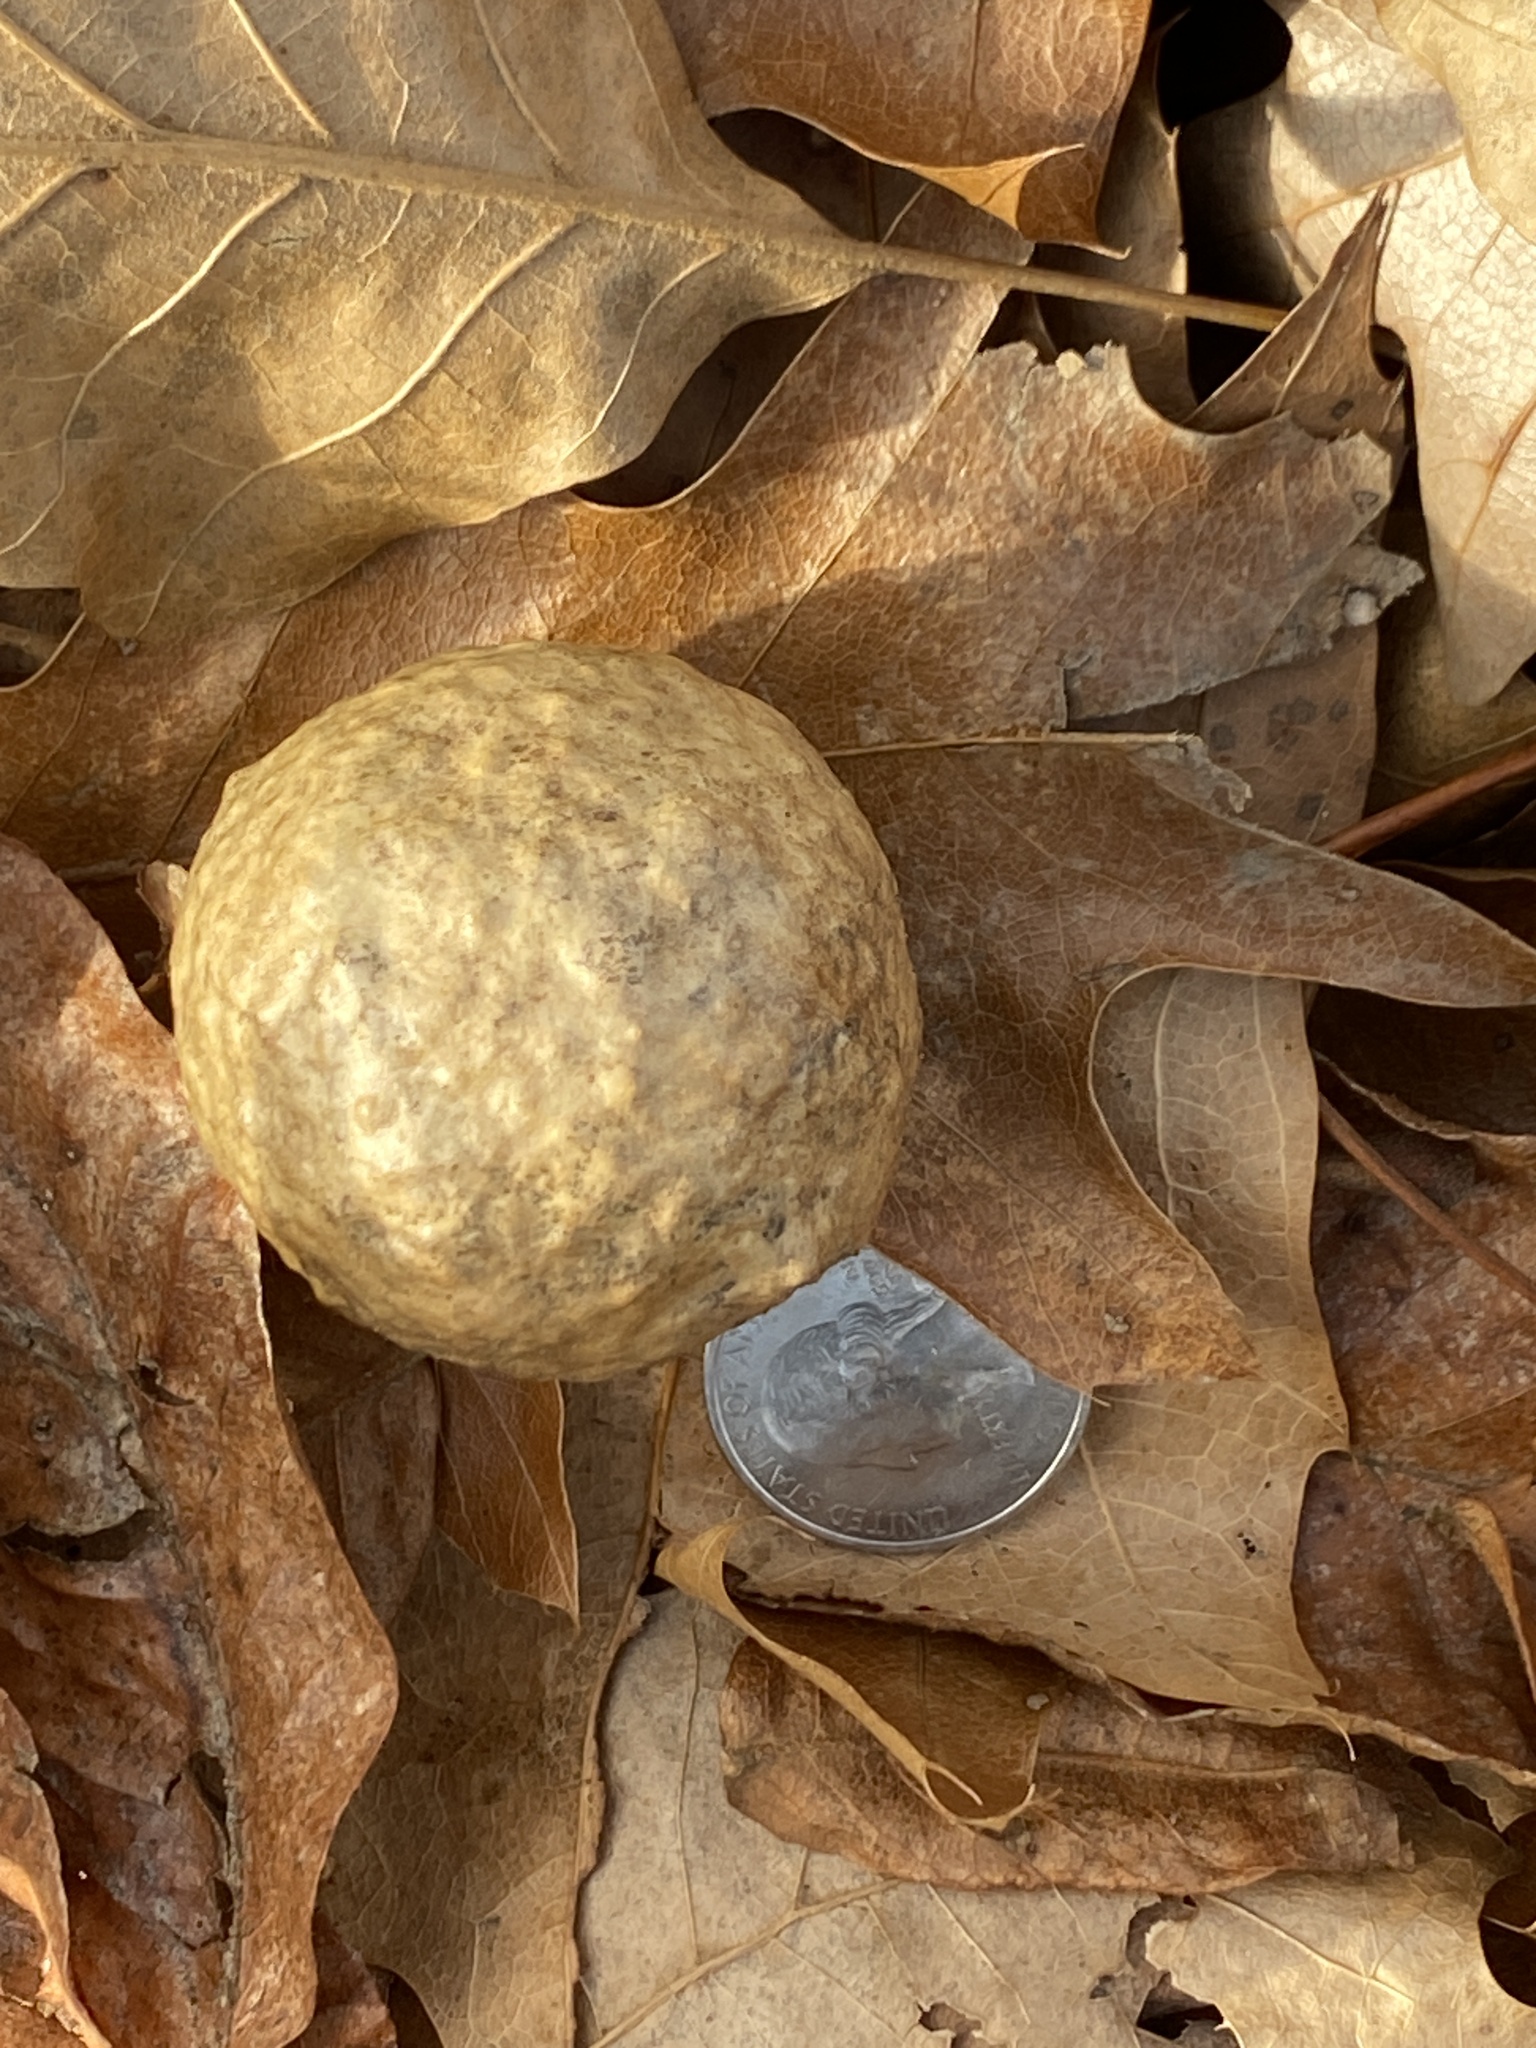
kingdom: Animalia
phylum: Arthropoda
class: Insecta
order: Hymenoptera
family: Cynipidae
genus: Amphibolips
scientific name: Amphibolips
